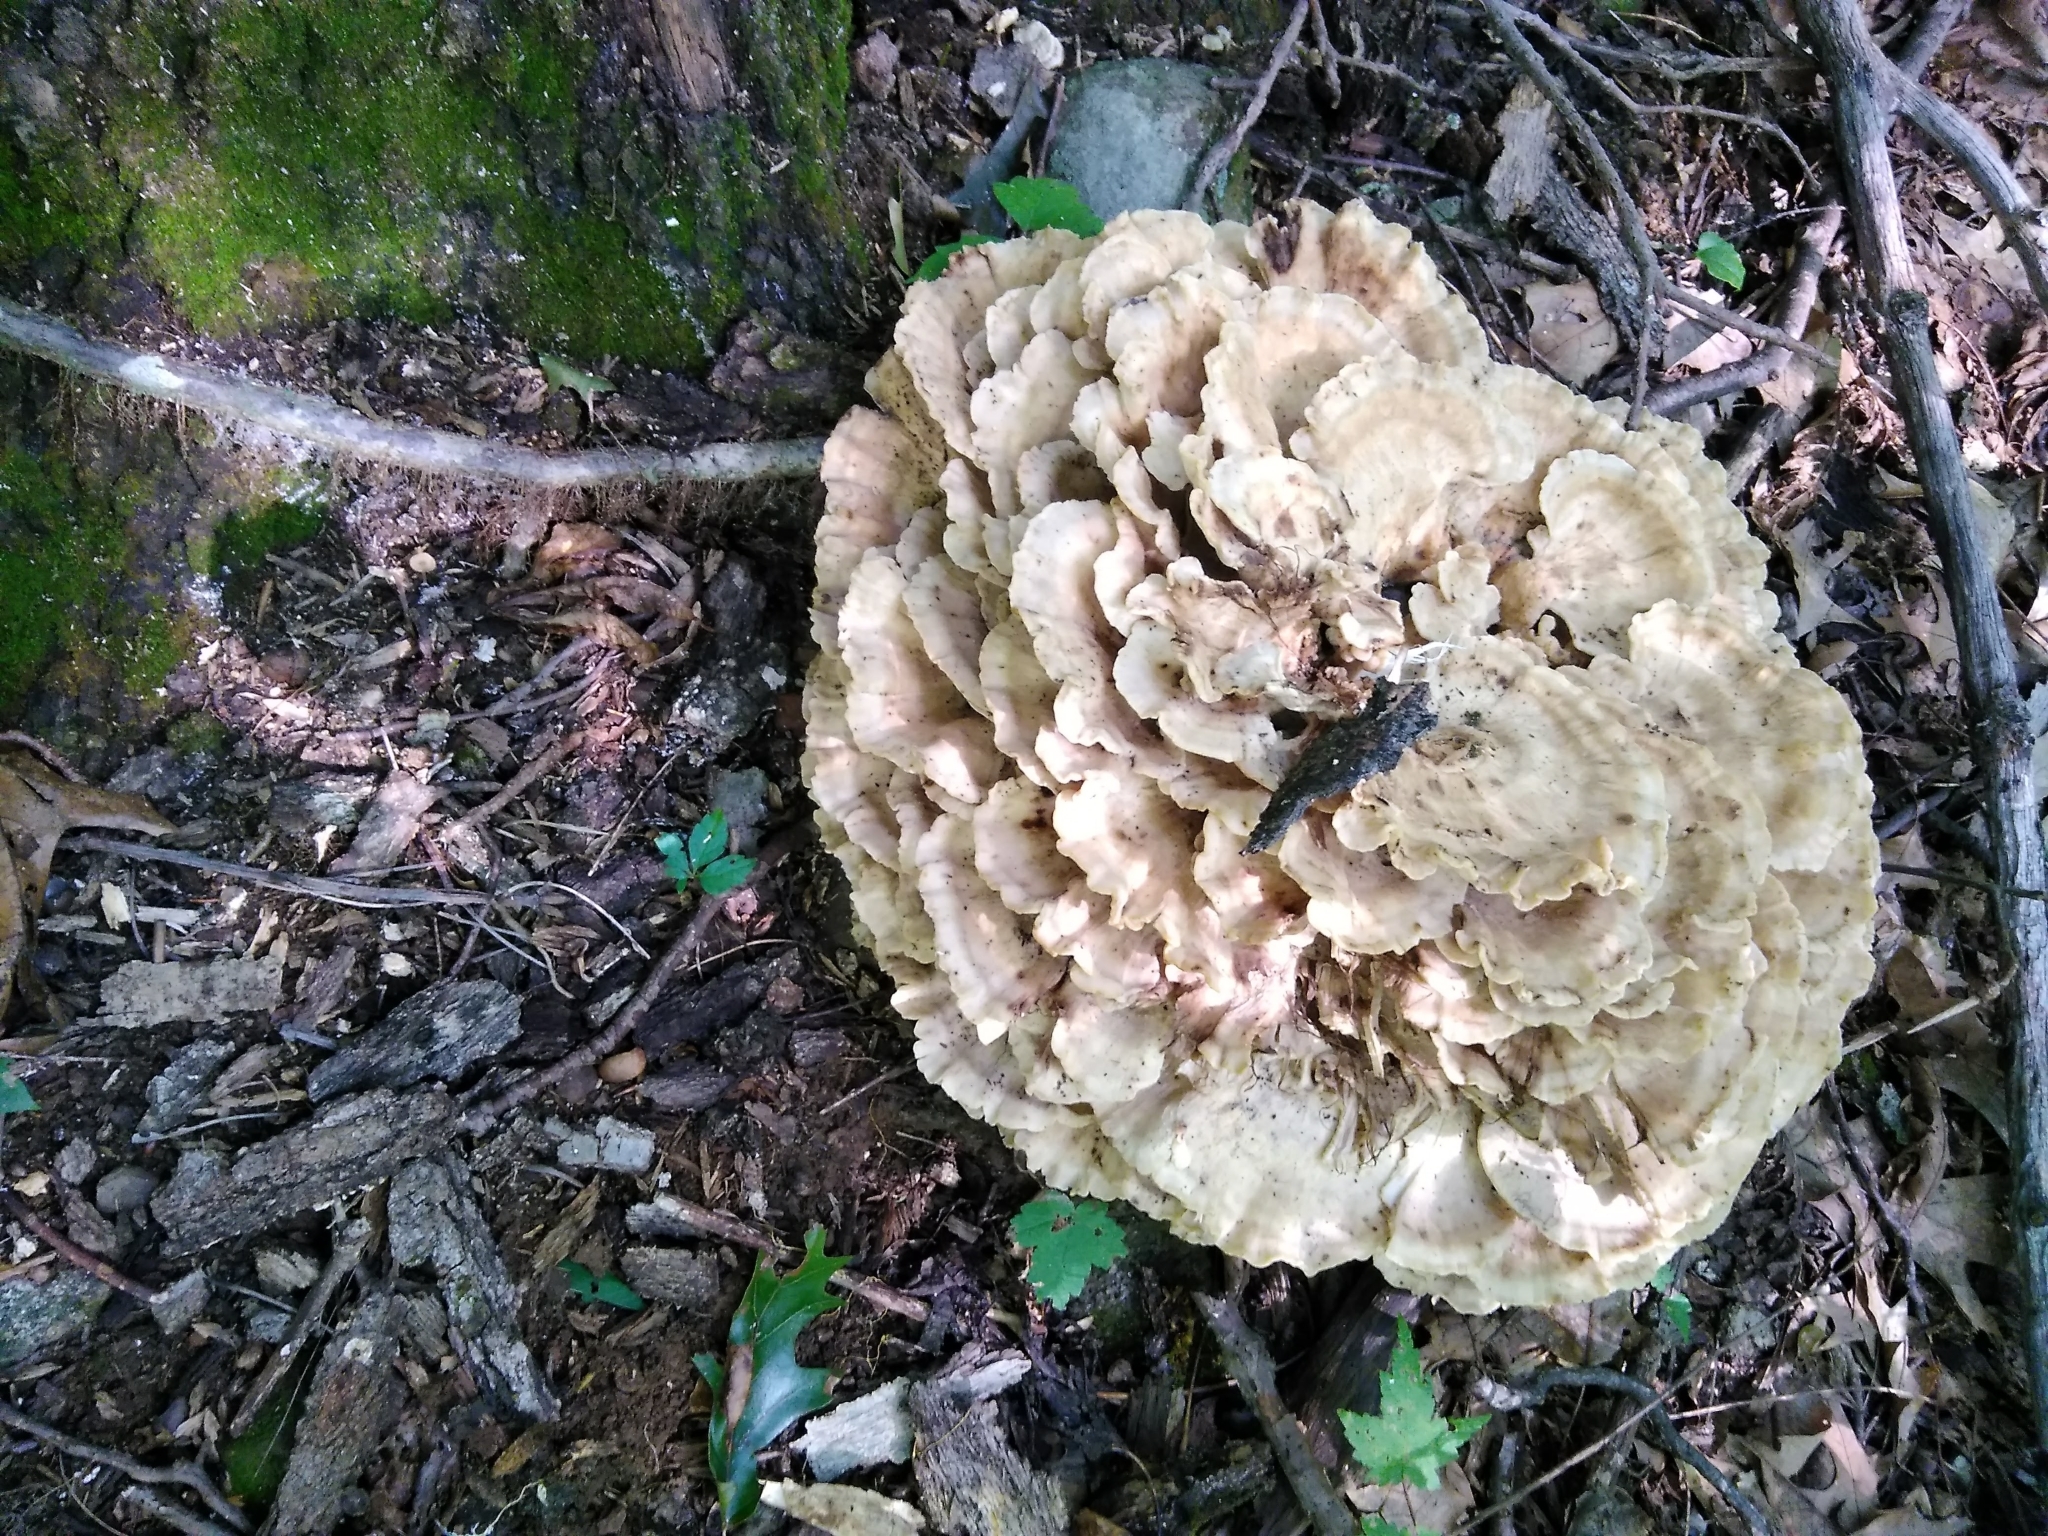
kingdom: Fungi
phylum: Basidiomycota
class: Agaricomycetes
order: Polyporales
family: Meripilaceae
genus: Meripilus
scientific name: Meripilus sumstinei
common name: Black-staining polypore
